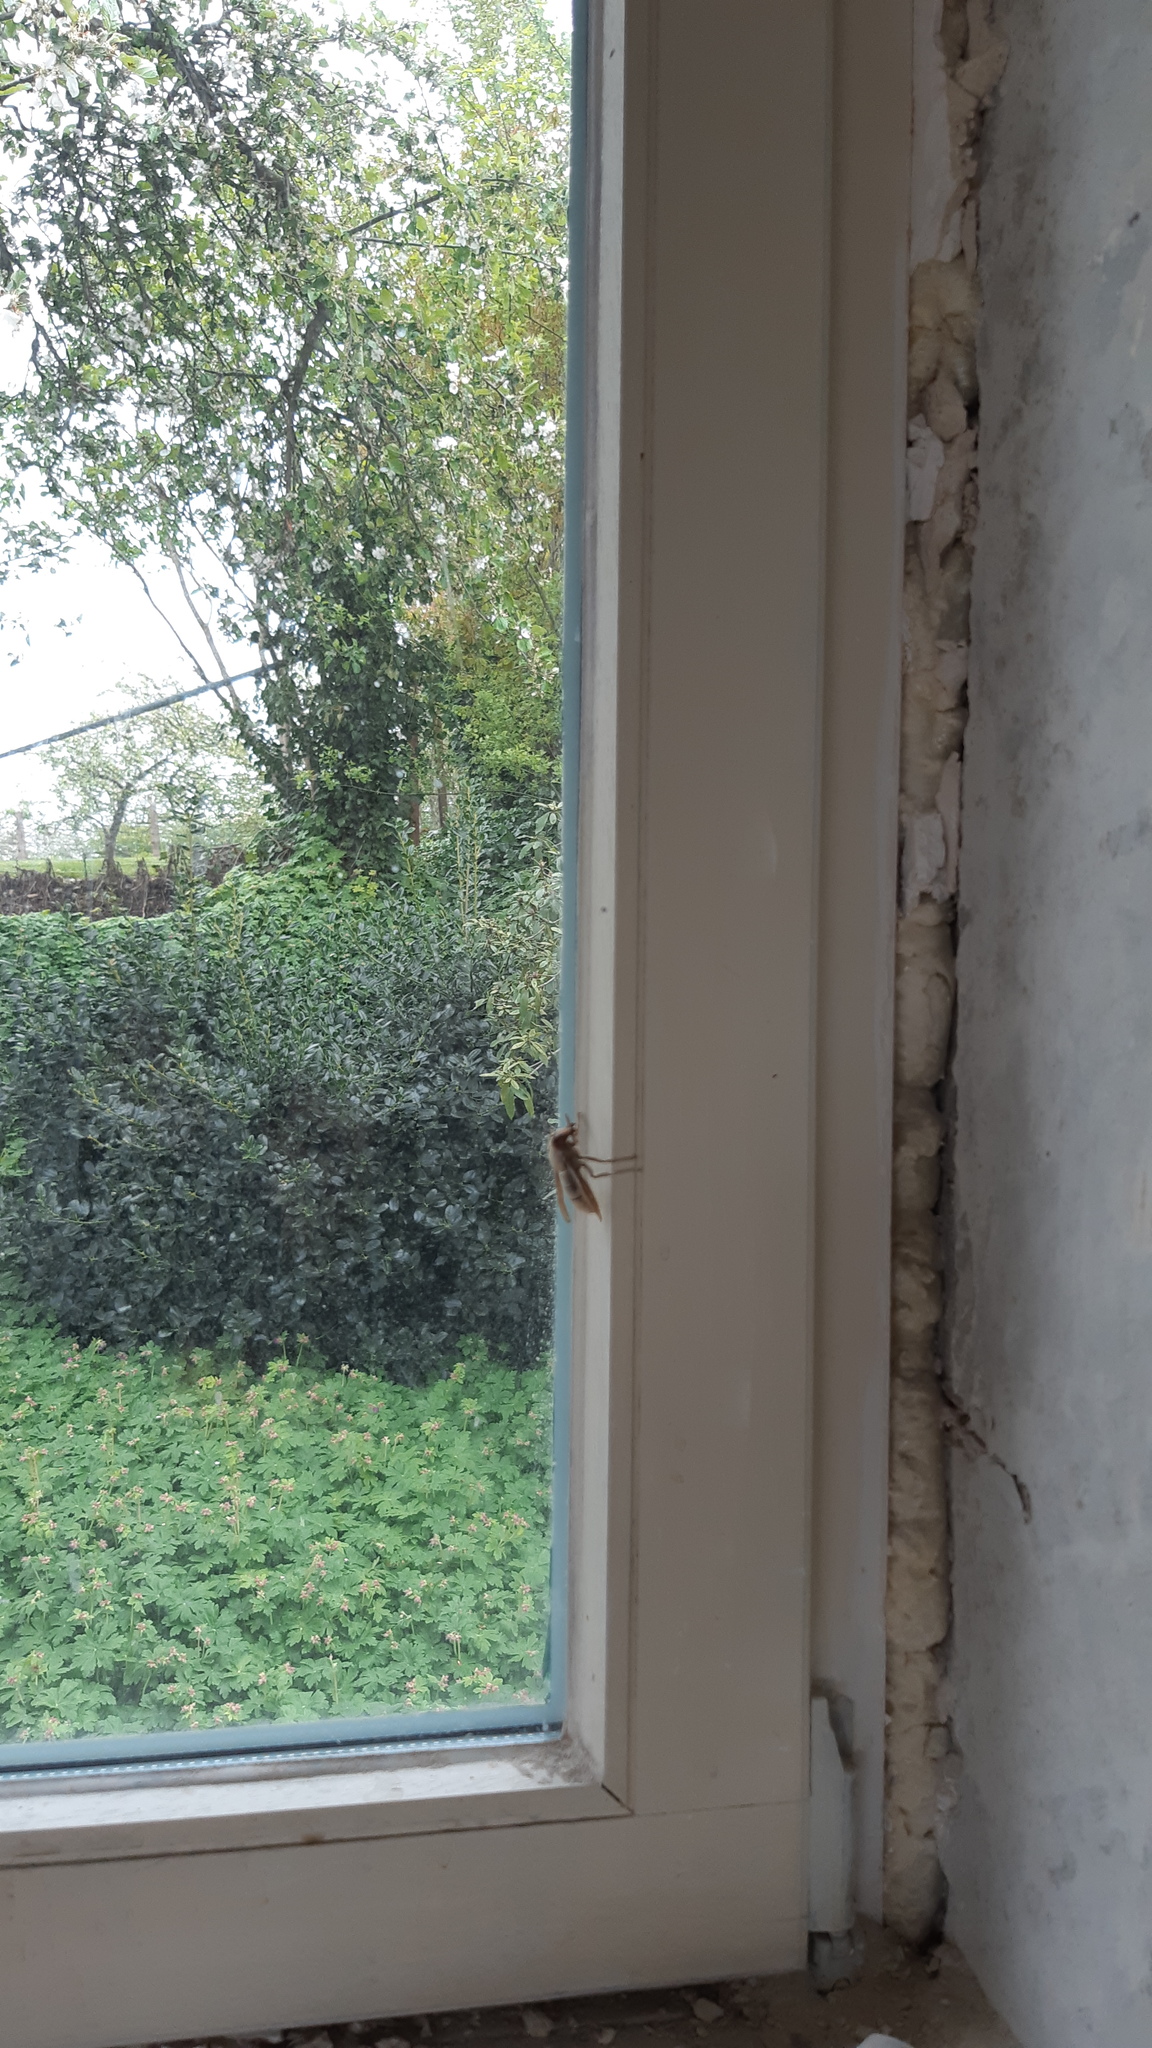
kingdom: Animalia
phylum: Arthropoda
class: Insecta
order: Hymenoptera
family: Vespidae
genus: Vespa
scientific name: Vespa crabro
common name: Hornet
